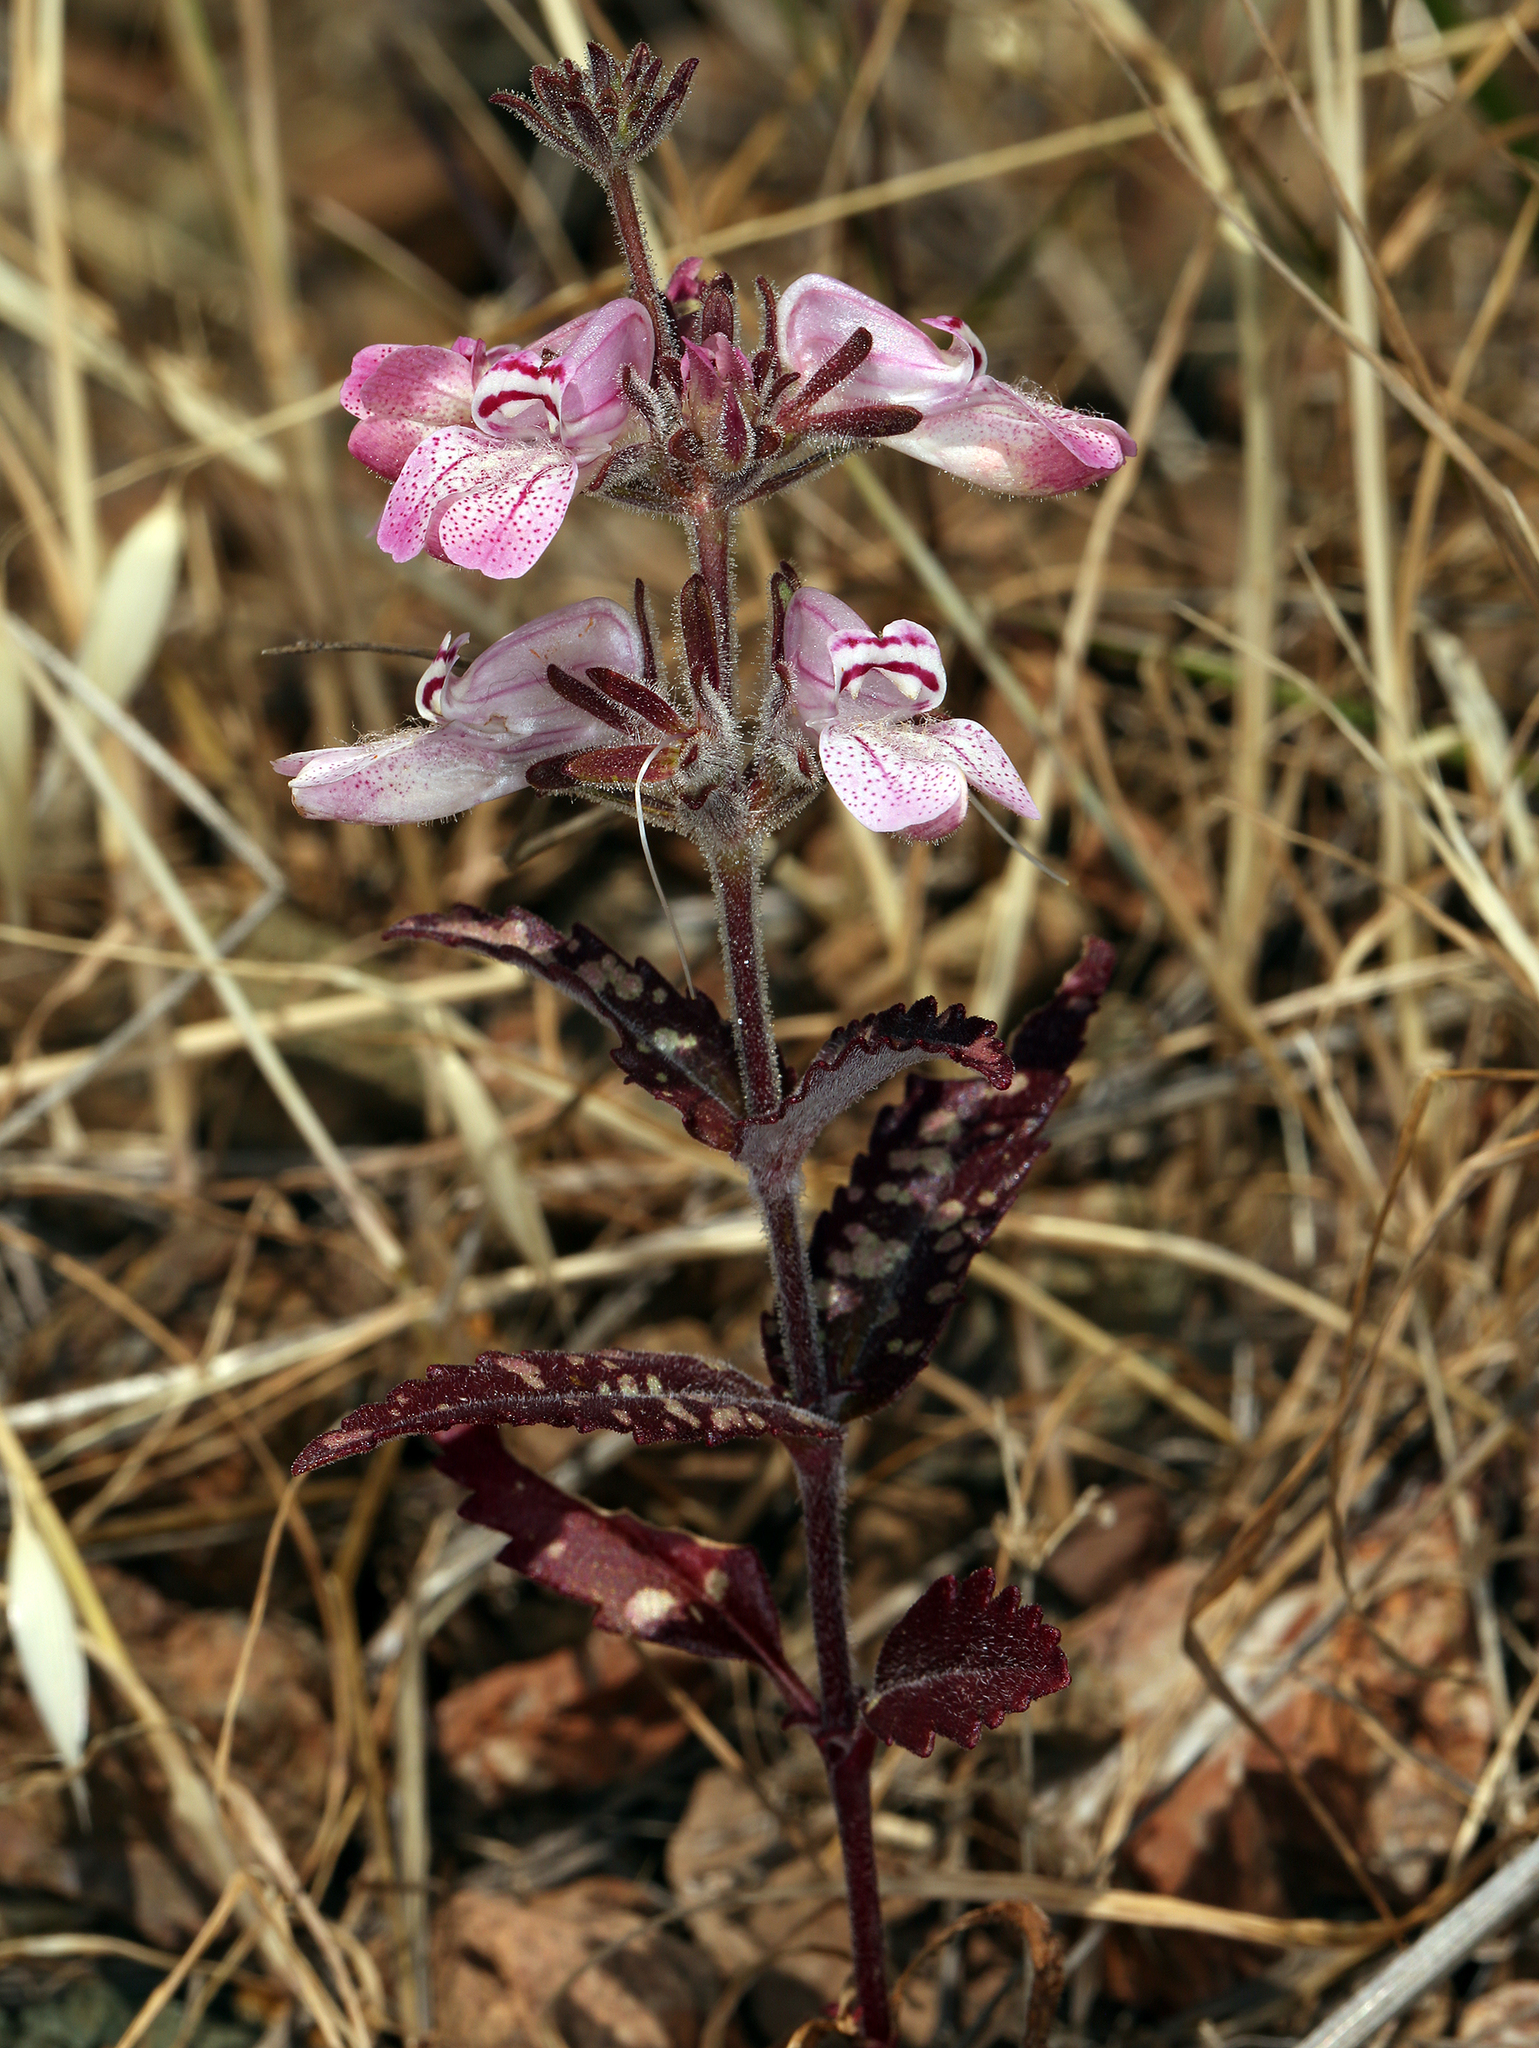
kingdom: Plantae
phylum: Tracheophyta
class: Magnoliopsida
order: Lamiales
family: Plantaginaceae
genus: Collinsia
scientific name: Collinsia tinctoria
